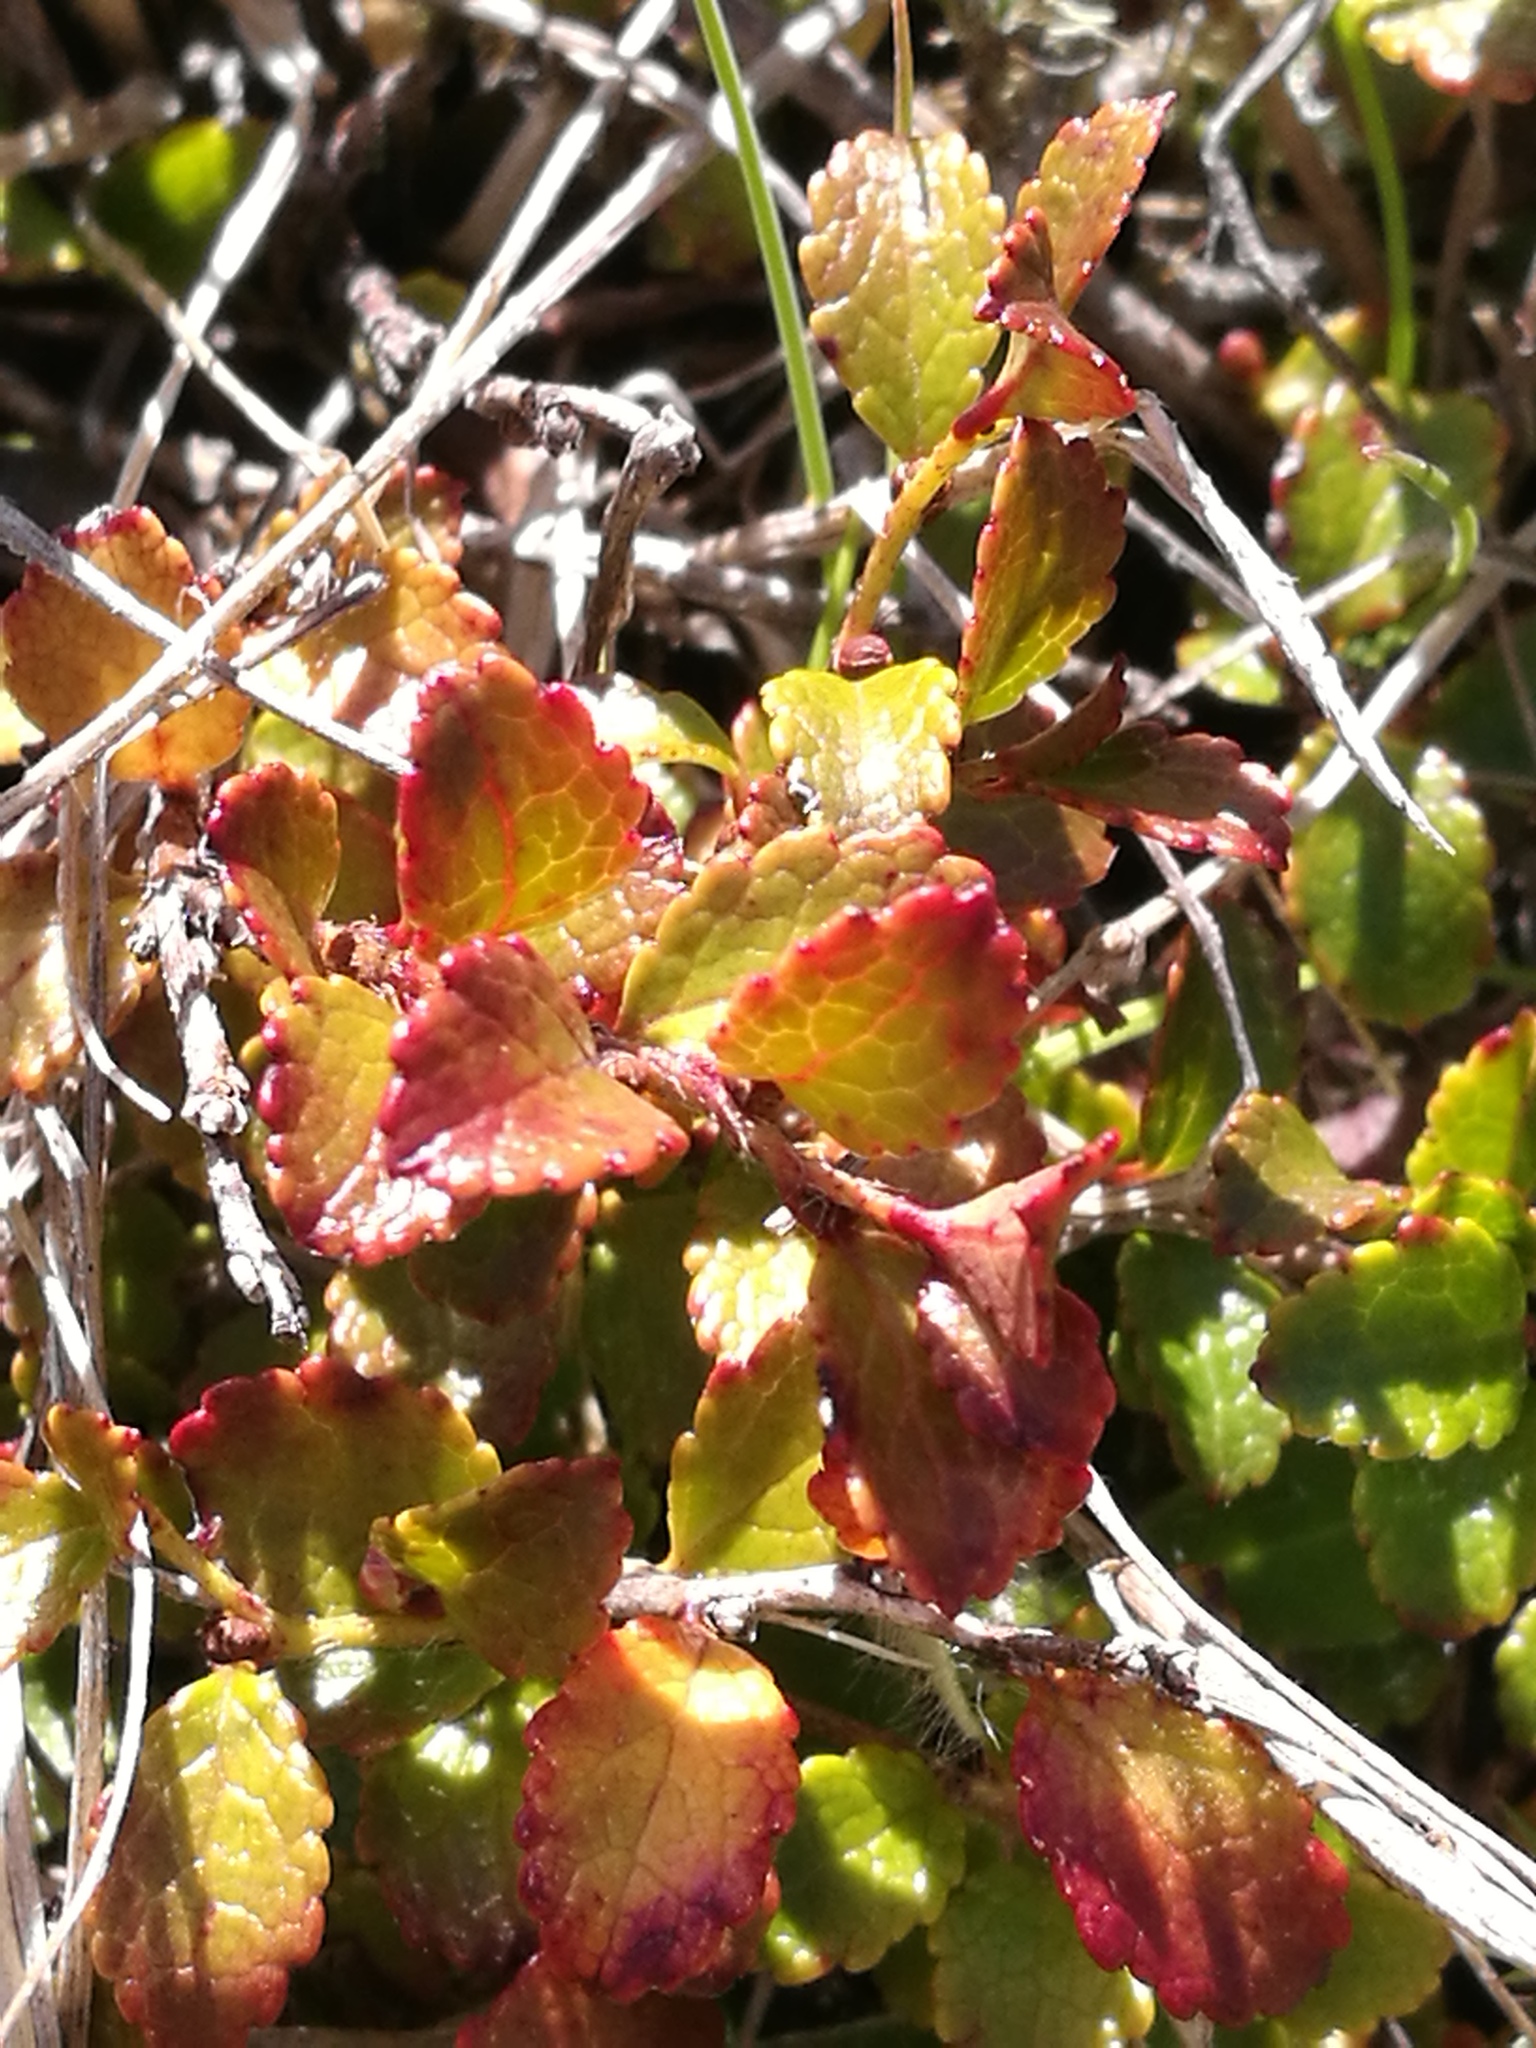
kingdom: Plantae
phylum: Tracheophyta
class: Magnoliopsida
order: Ericales
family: Ericaceae
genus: Gaultheria
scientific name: Gaultheria depressa
